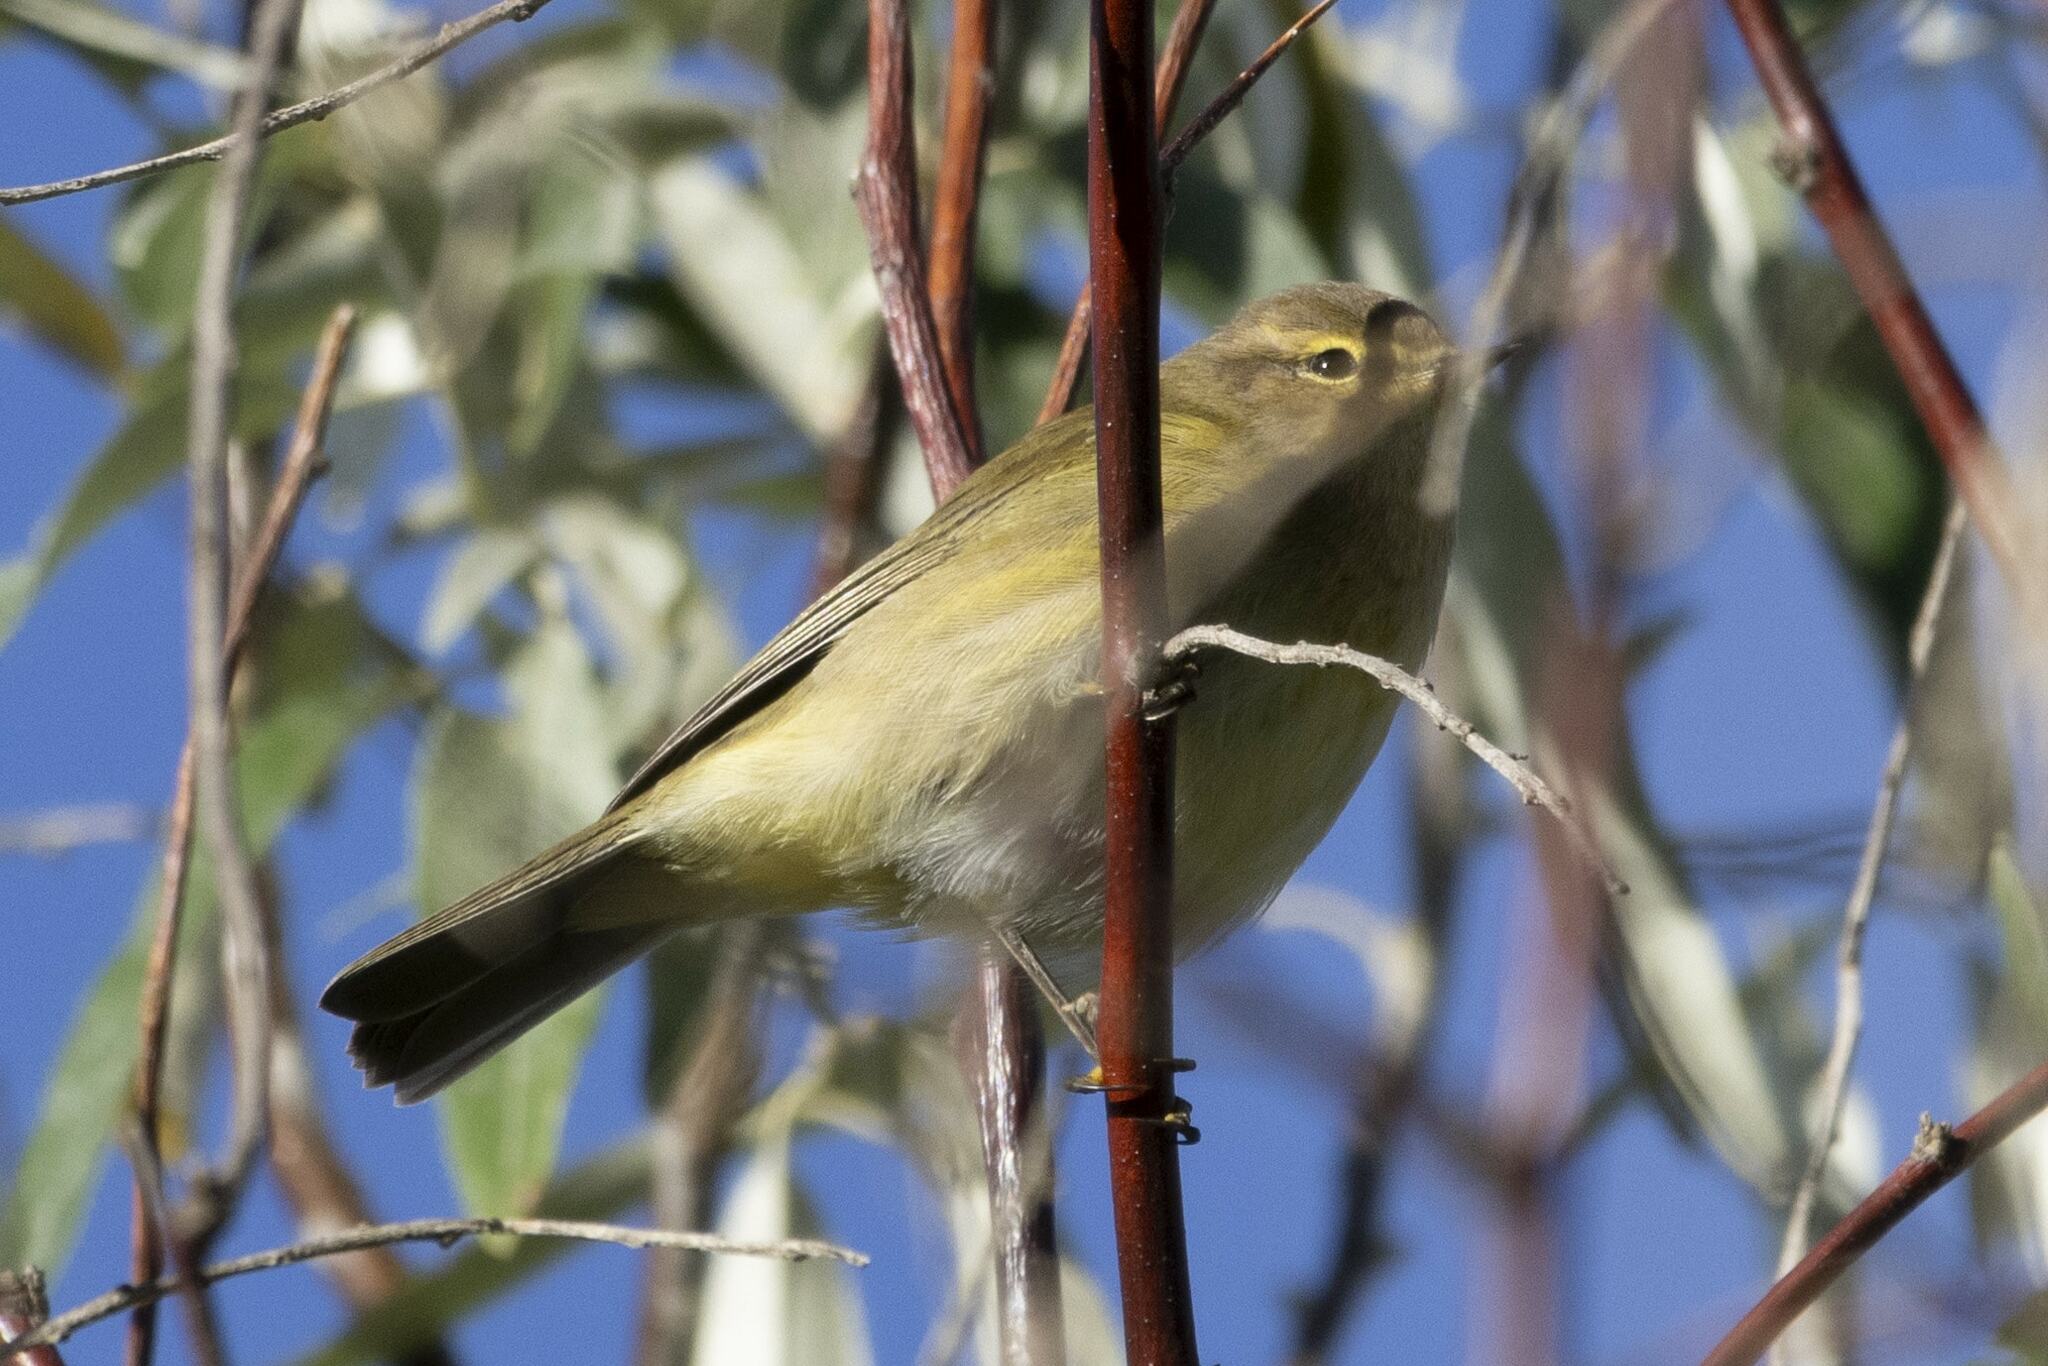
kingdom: Animalia
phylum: Chordata
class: Aves
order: Passeriformes
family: Phylloscopidae
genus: Phylloscopus
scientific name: Phylloscopus collybita
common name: Common chiffchaff
